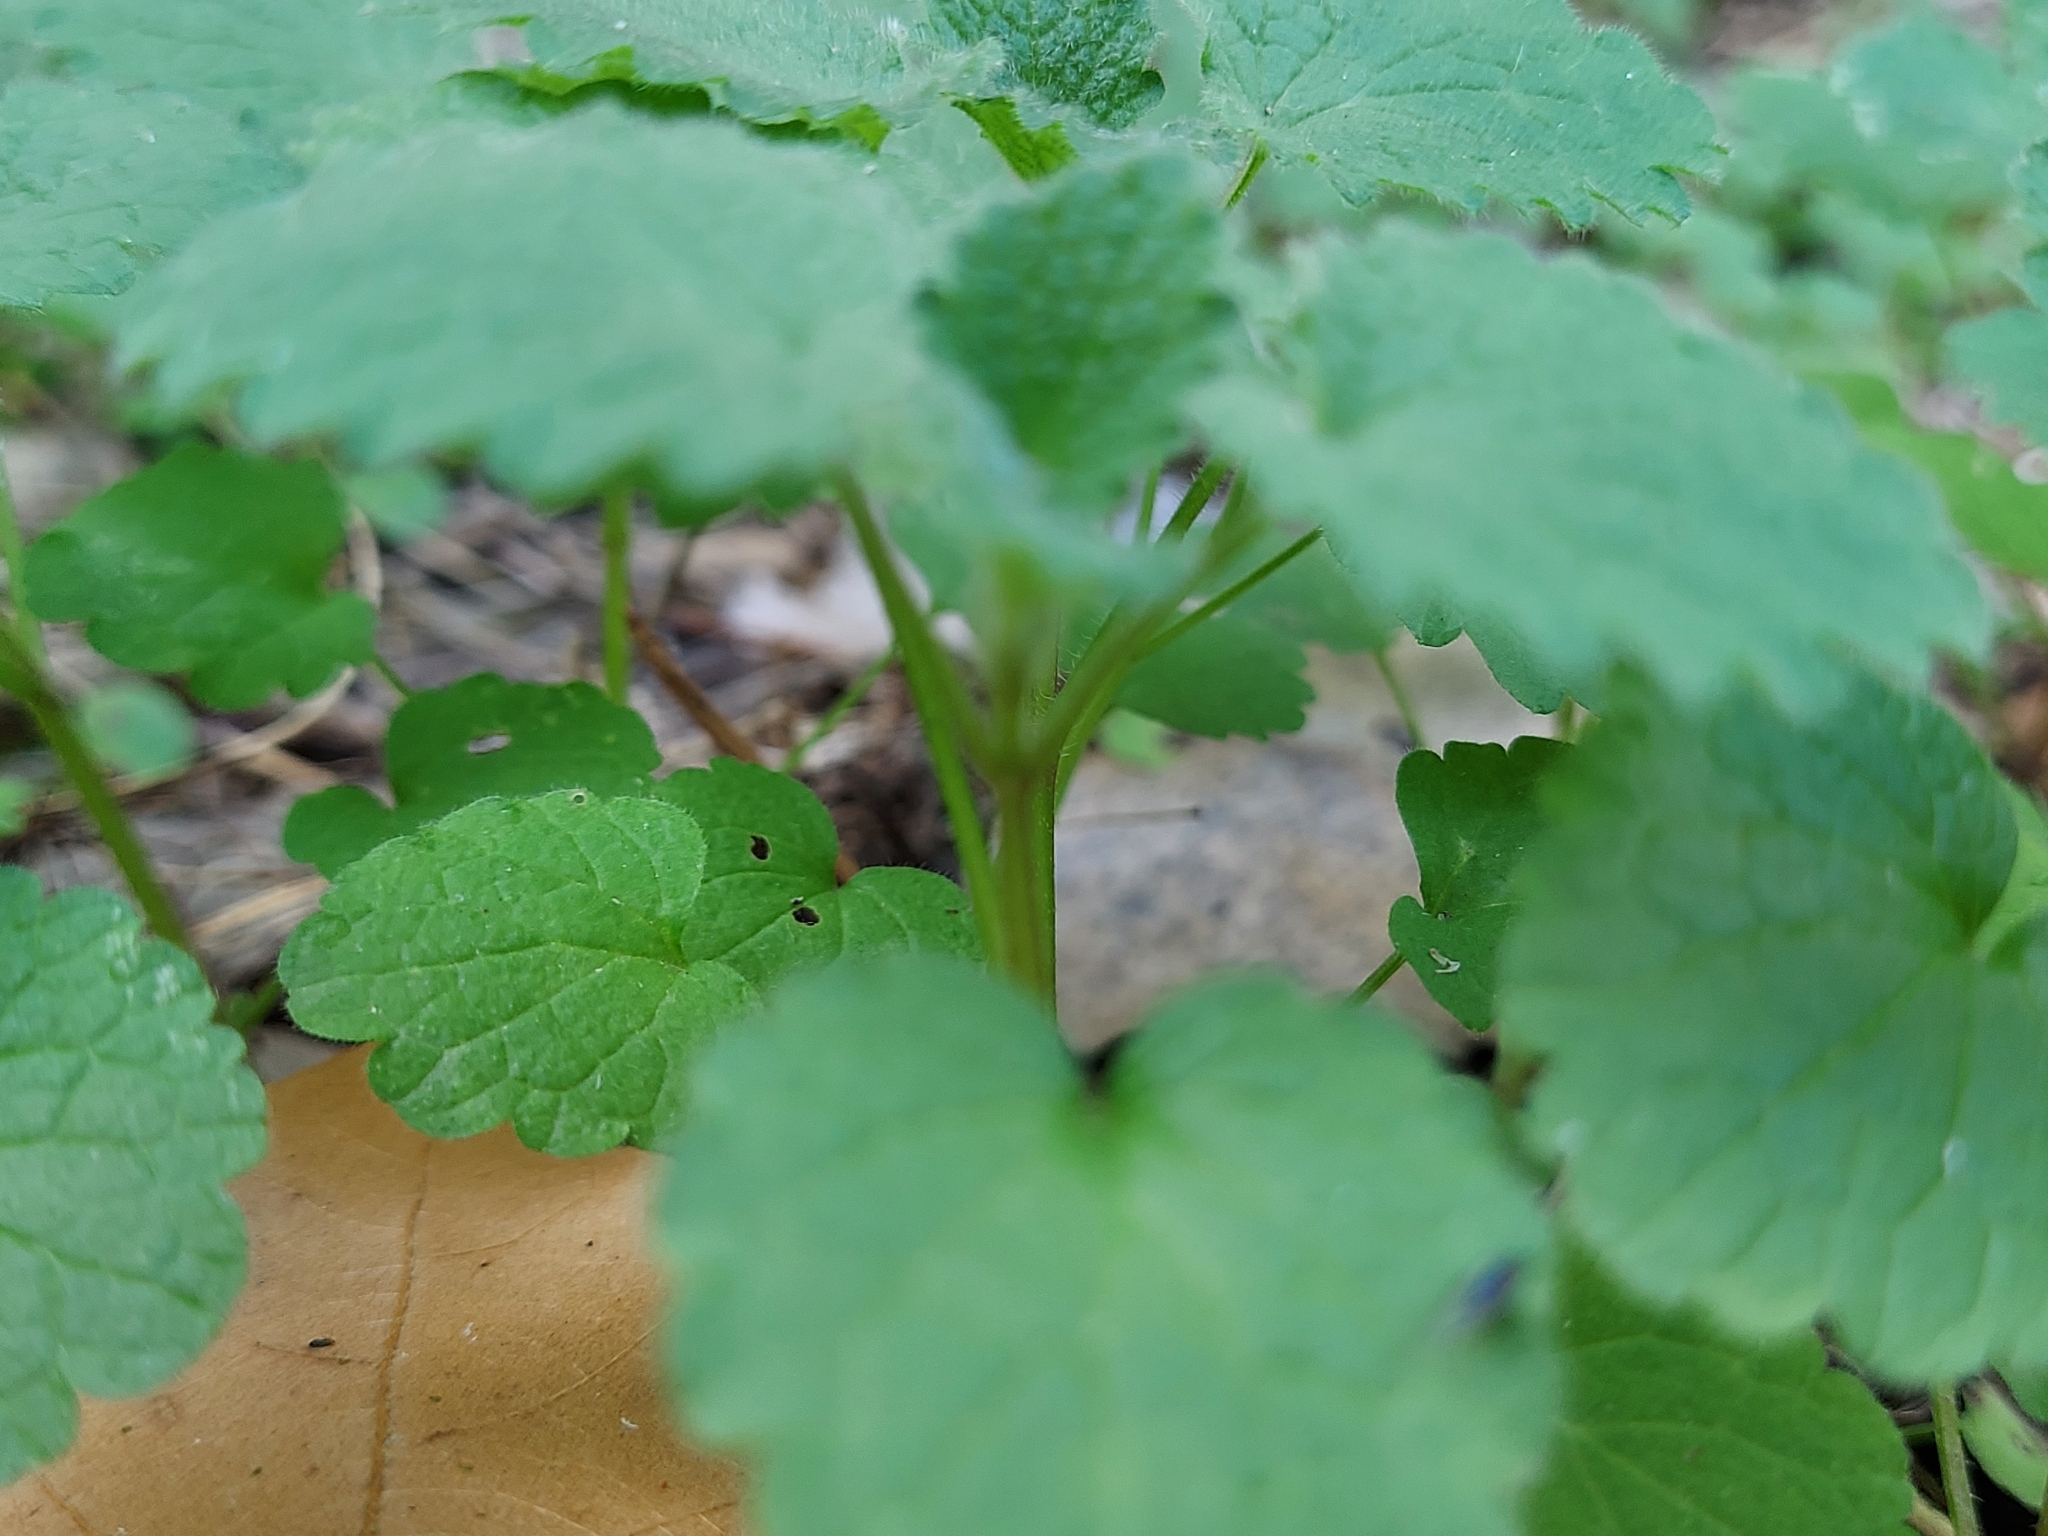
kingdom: Plantae
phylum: Tracheophyta
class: Magnoliopsida
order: Lamiales
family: Lamiaceae
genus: Lamium
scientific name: Lamium purpureum
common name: Red dead-nettle
